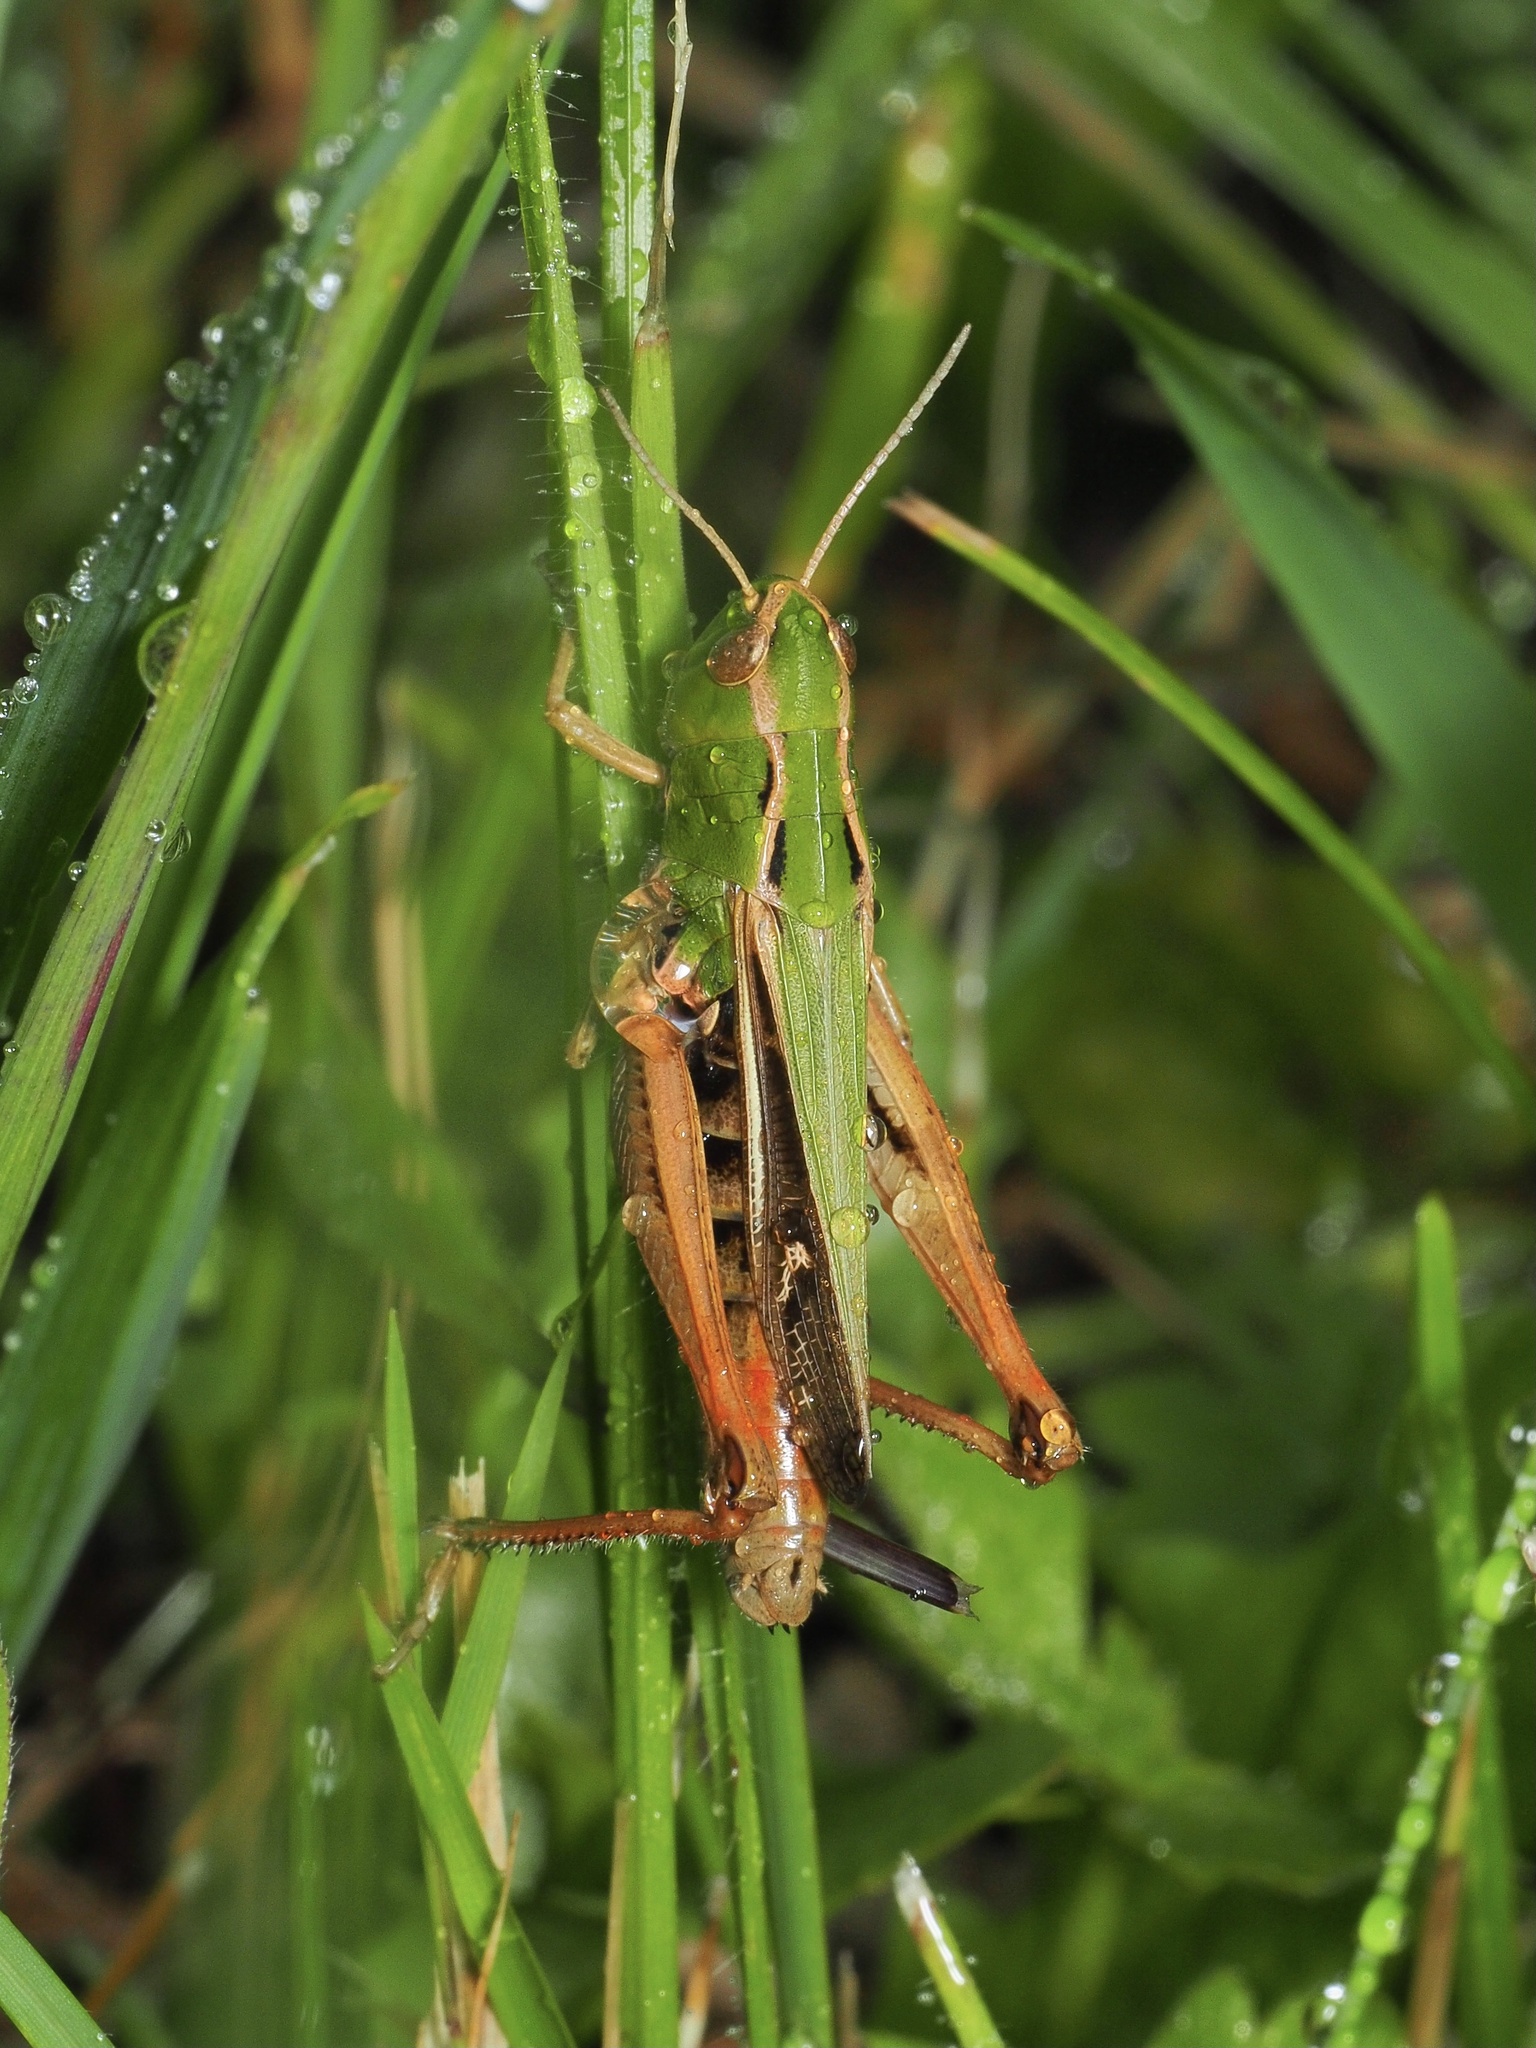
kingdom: Animalia
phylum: Arthropoda
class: Insecta
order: Orthoptera
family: Acrididae
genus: Stenobothrus
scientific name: Stenobothrus lineatus
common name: Stripe-winged grasshopper
